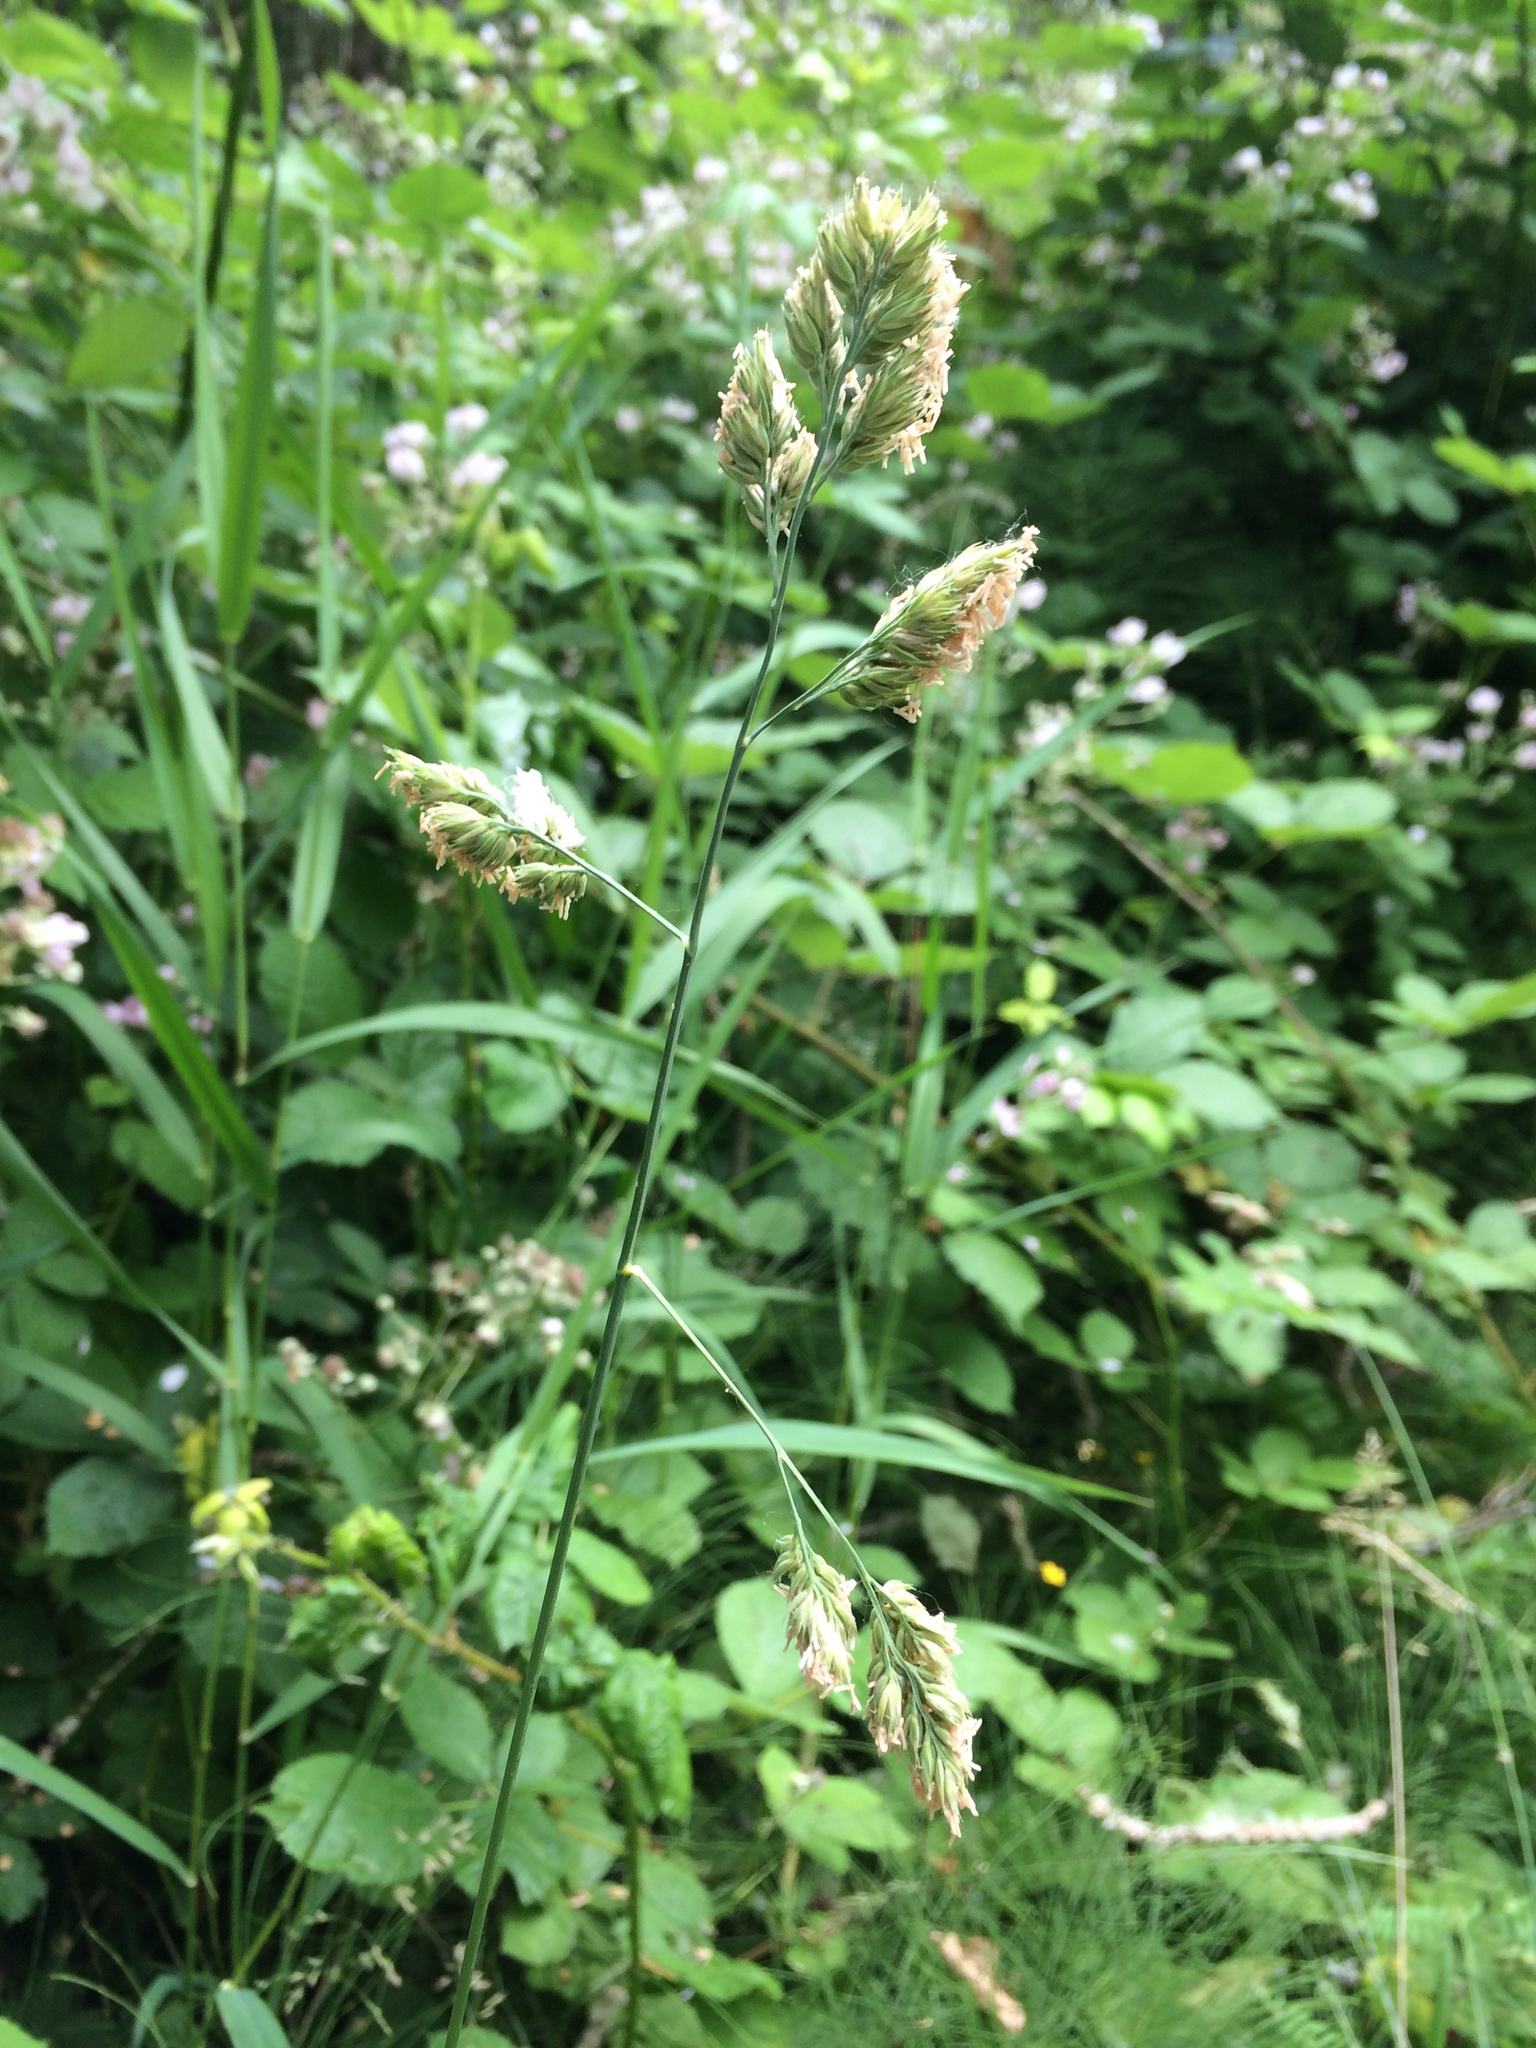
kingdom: Plantae
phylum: Tracheophyta
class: Liliopsida
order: Poales
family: Poaceae
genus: Dactylis
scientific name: Dactylis glomerata
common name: Orchardgrass
